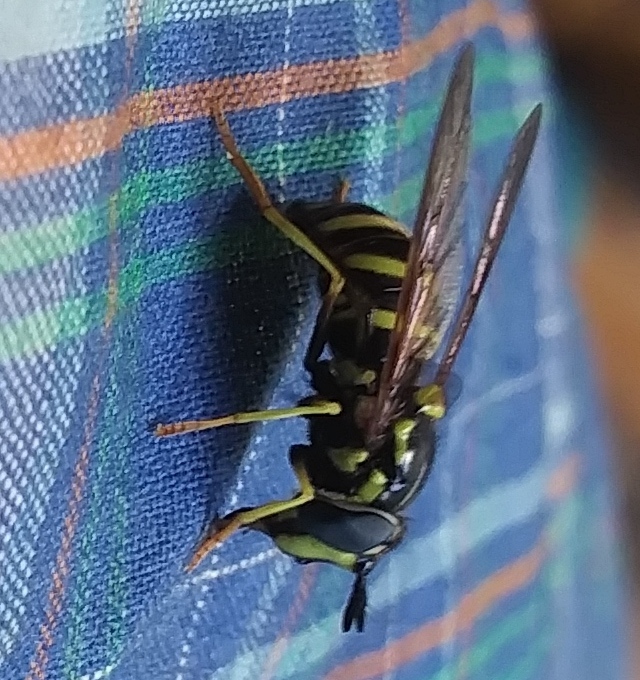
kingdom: Animalia
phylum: Arthropoda
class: Insecta
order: Diptera
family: Syrphidae
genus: Chrysotoxum
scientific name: Chrysotoxum
